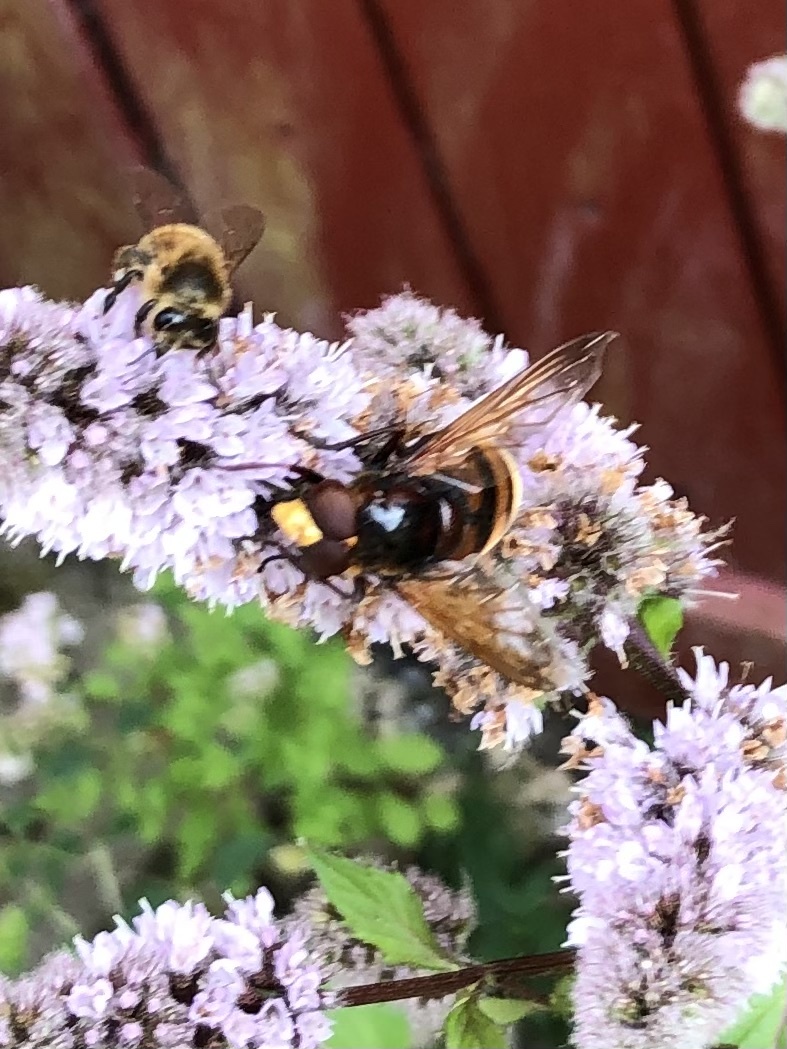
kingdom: Animalia
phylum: Arthropoda
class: Insecta
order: Diptera
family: Syrphidae
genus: Volucella
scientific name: Volucella zonaria
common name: Hornet hoverfly
